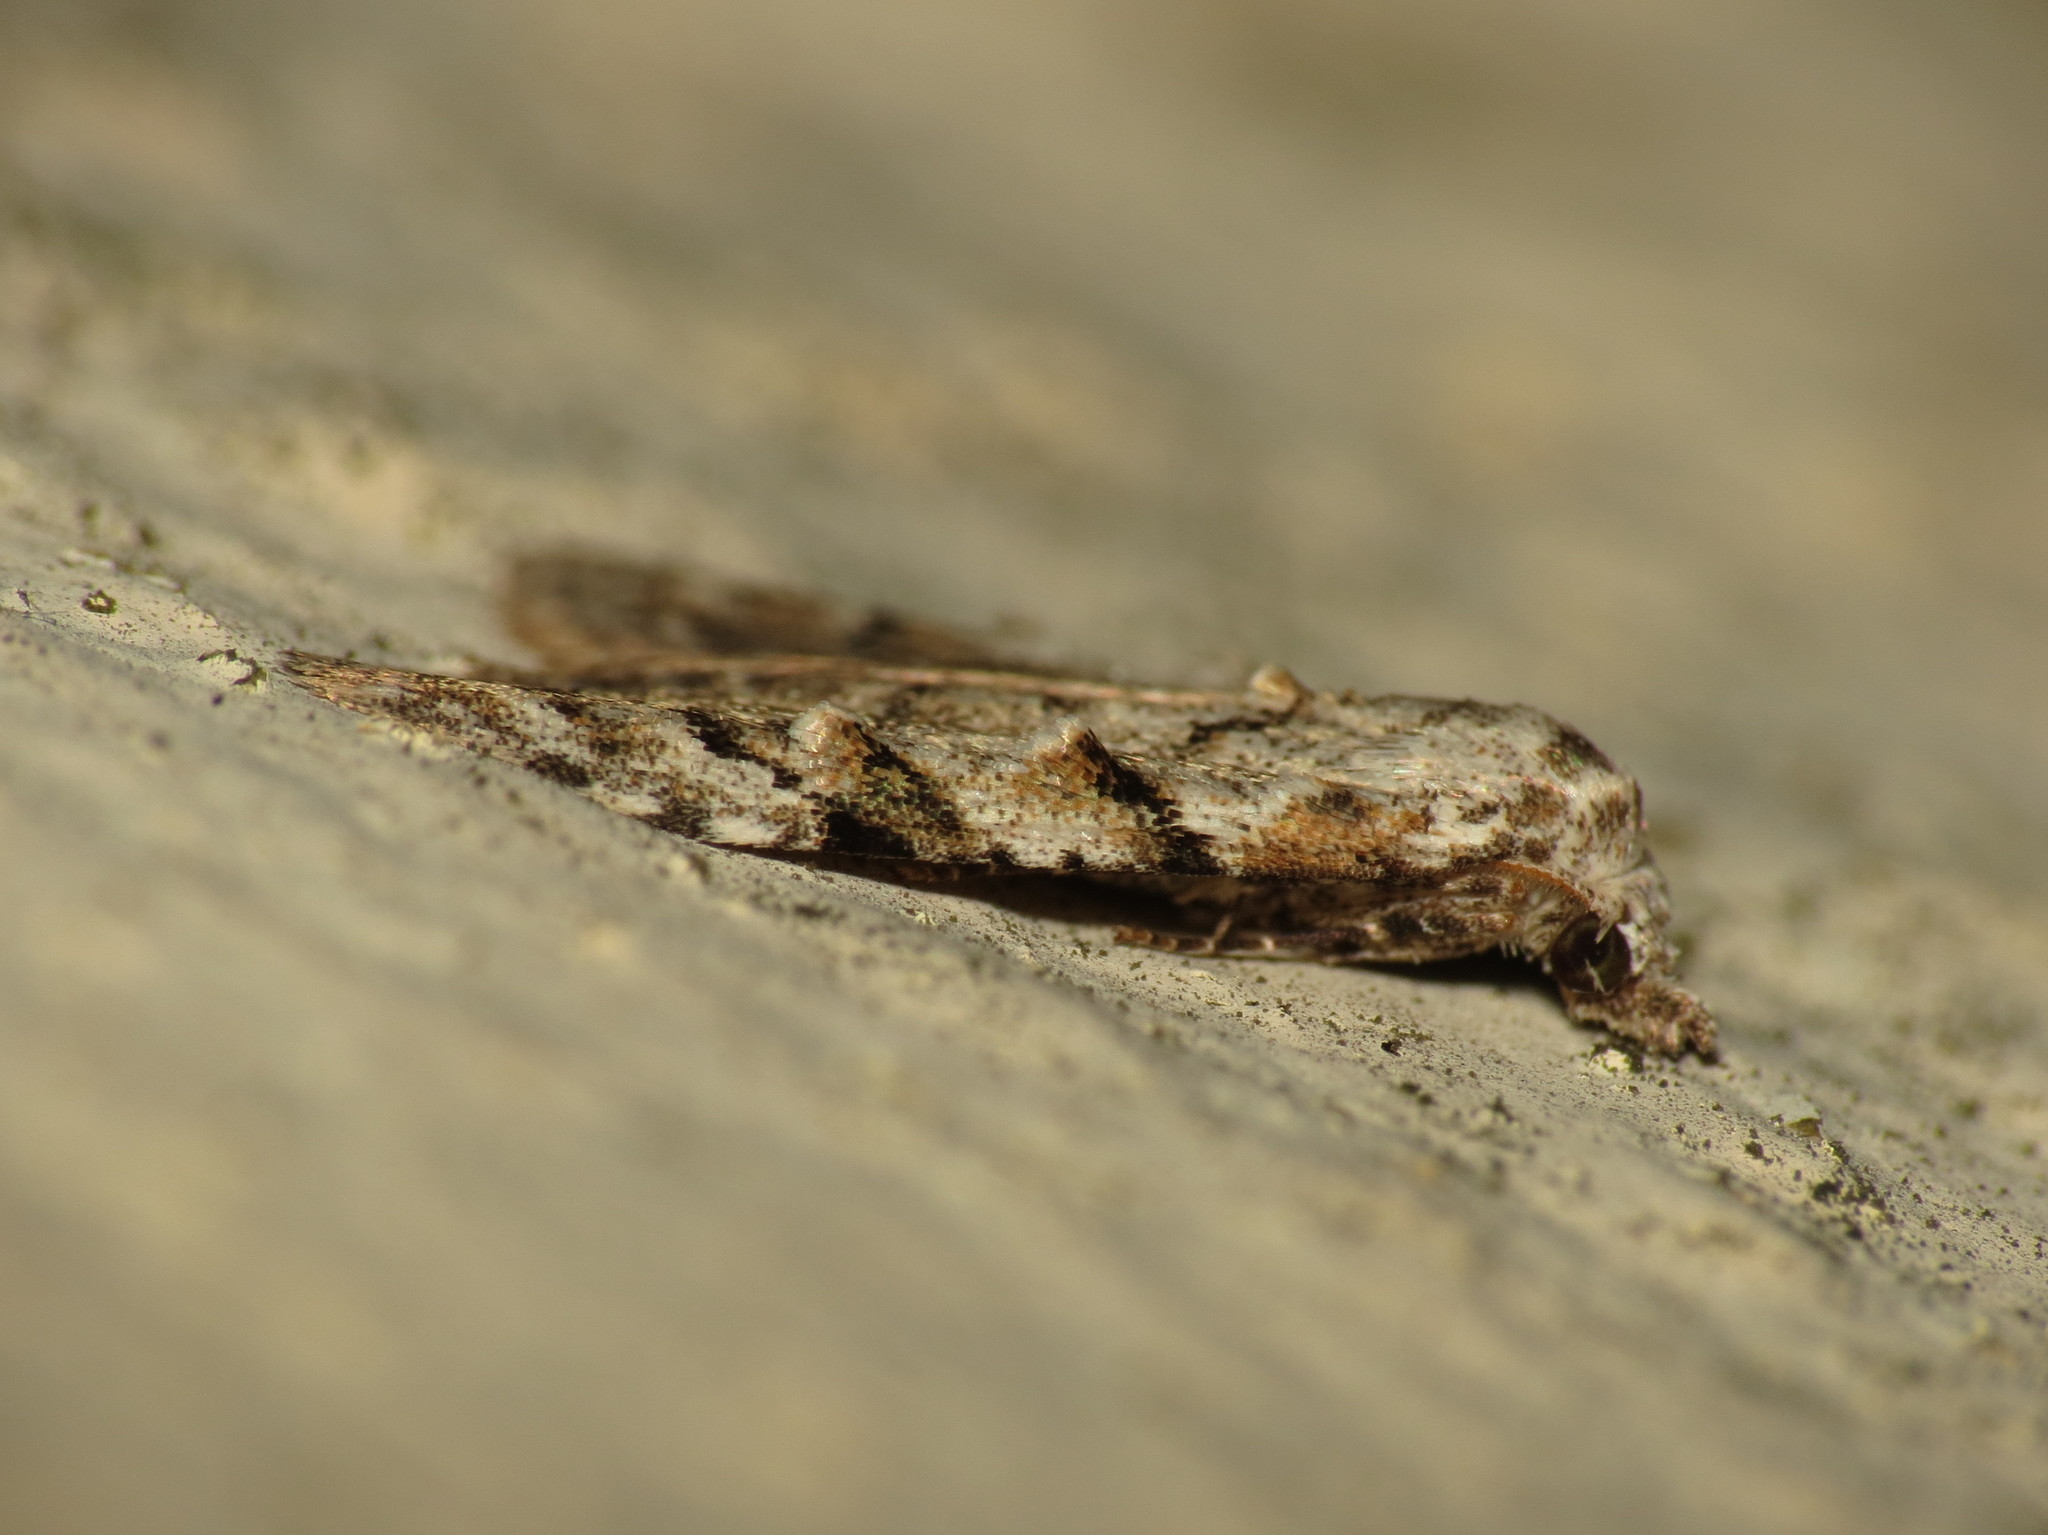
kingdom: Animalia
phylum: Arthropoda
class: Insecta
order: Lepidoptera
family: Nolidae
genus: Nola
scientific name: Nola confusalis
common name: Least black arches
